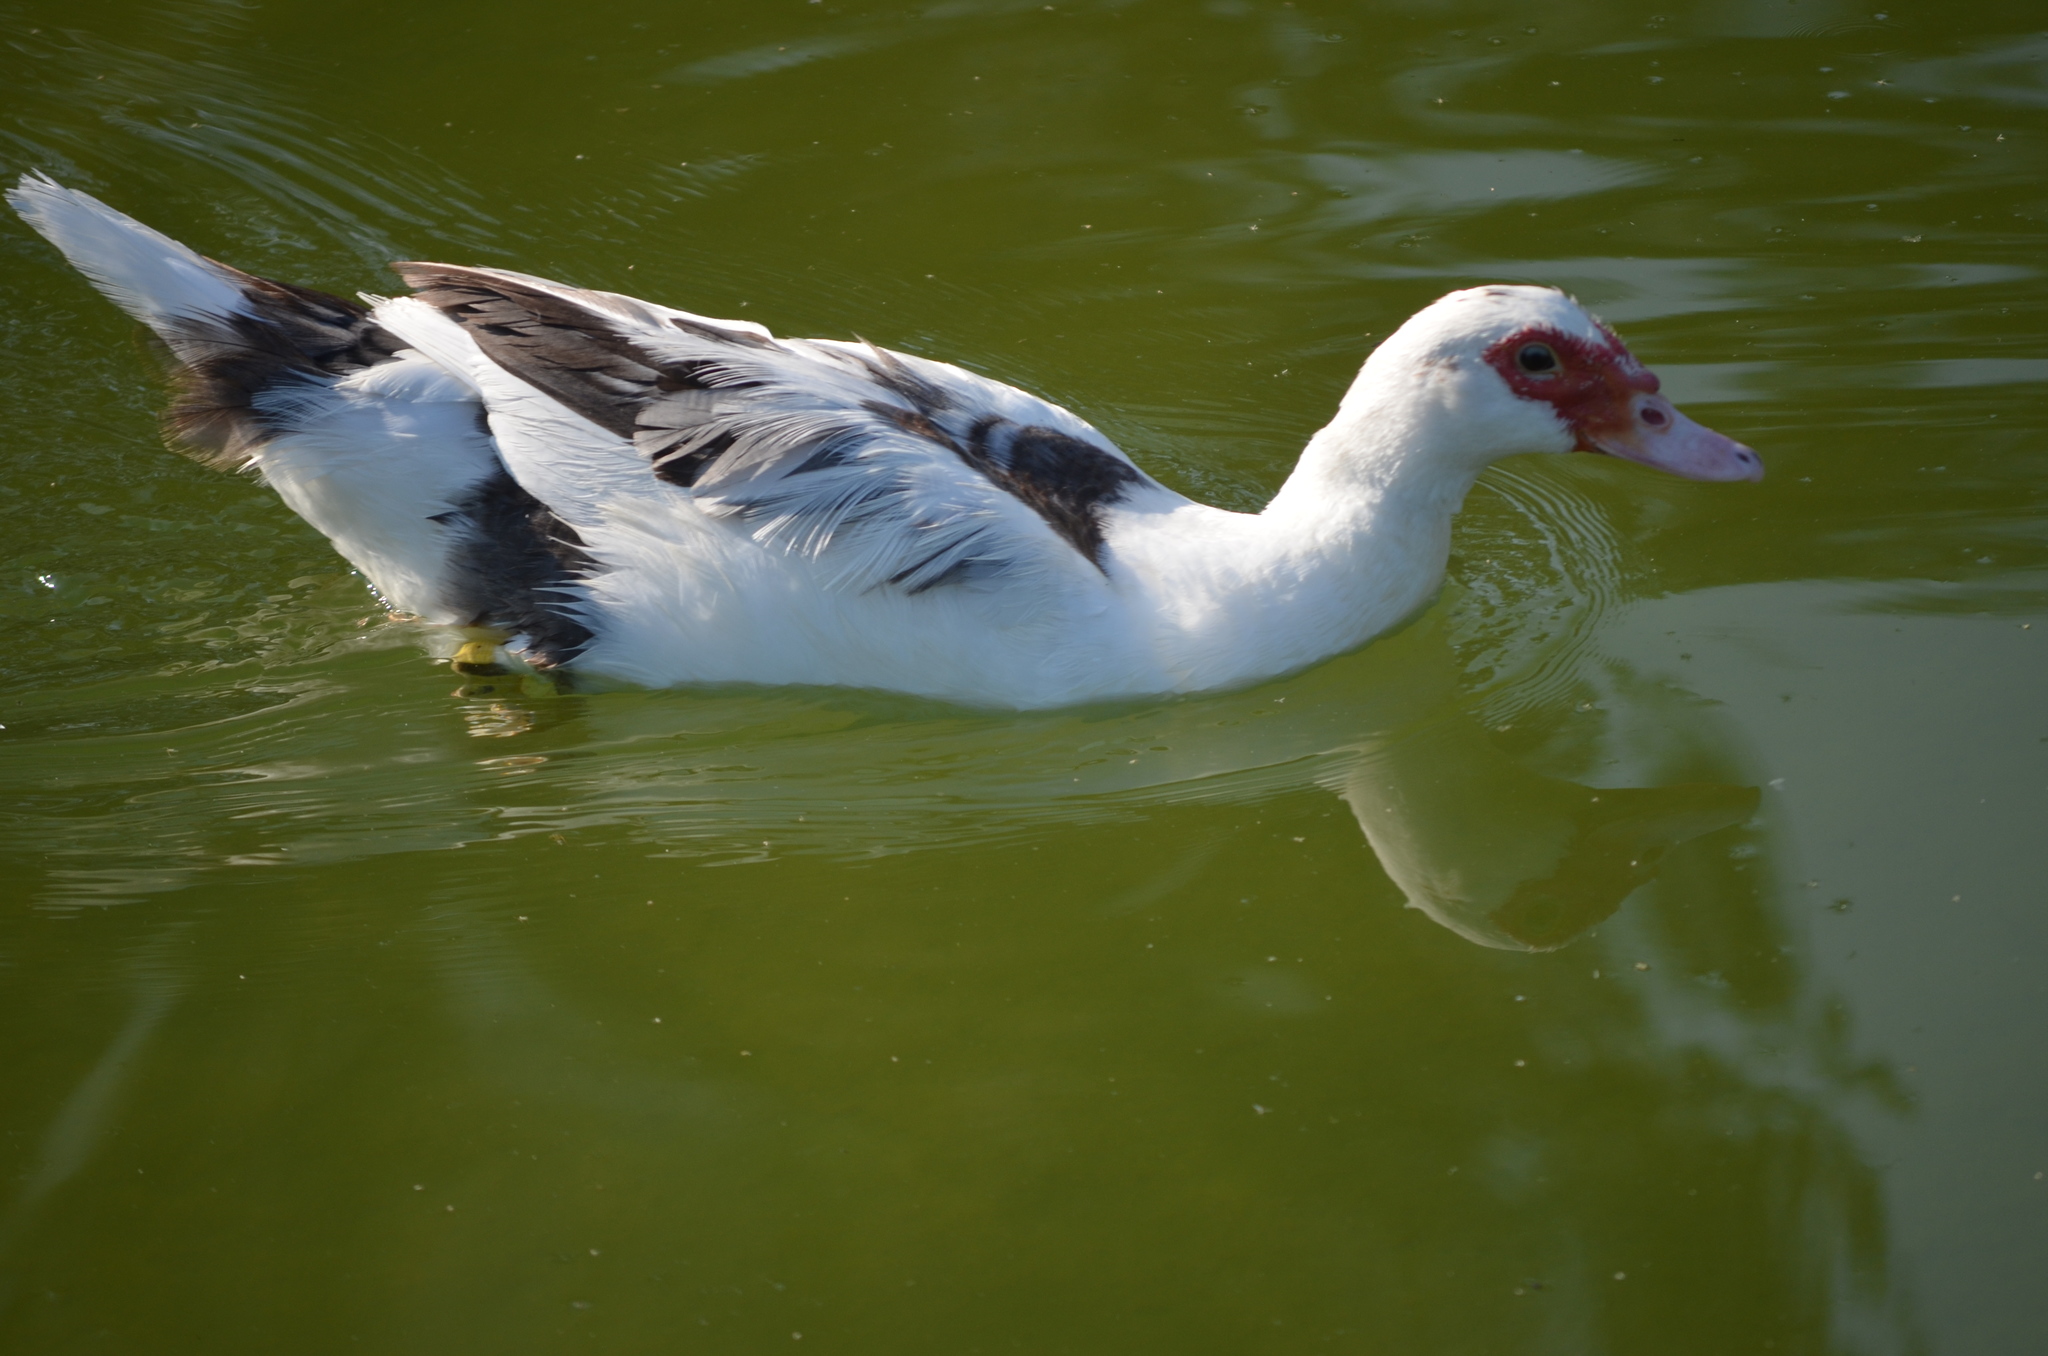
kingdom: Animalia
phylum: Chordata
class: Aves
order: Anseriformes
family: Anatidae
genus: Cairina
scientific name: Cairina moschata
